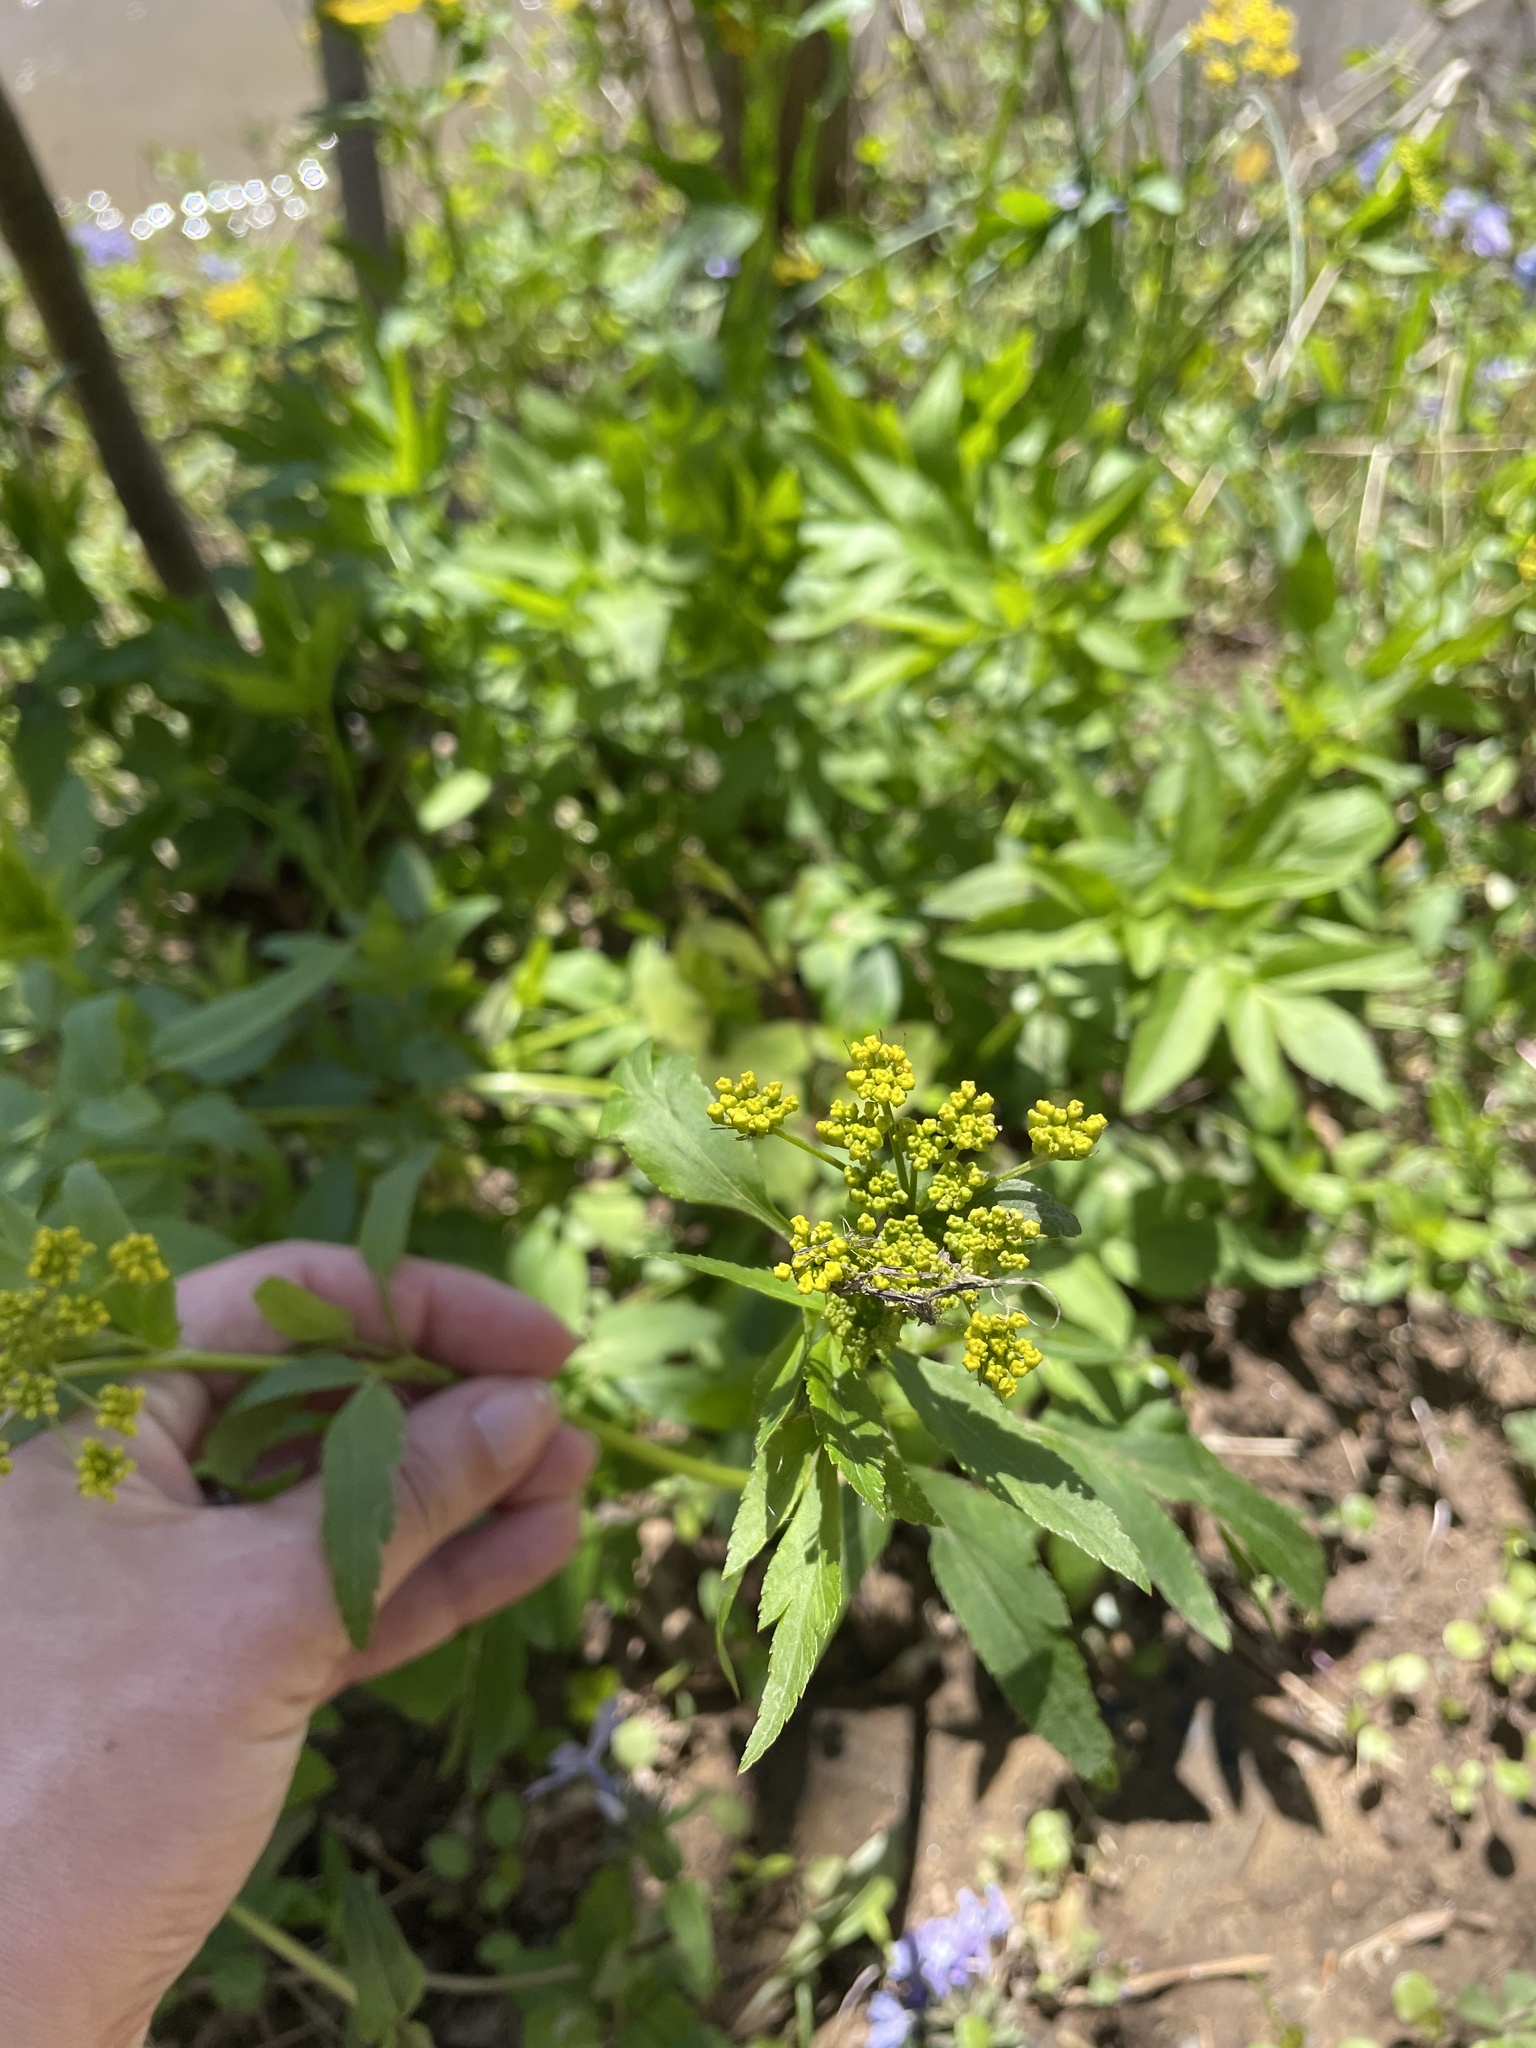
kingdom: Plantae
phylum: Tracheophyta
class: Magnoliopsida
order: Apiales
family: Apiaceae
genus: Zizia
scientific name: Zizia aurea
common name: Golden alexanders
